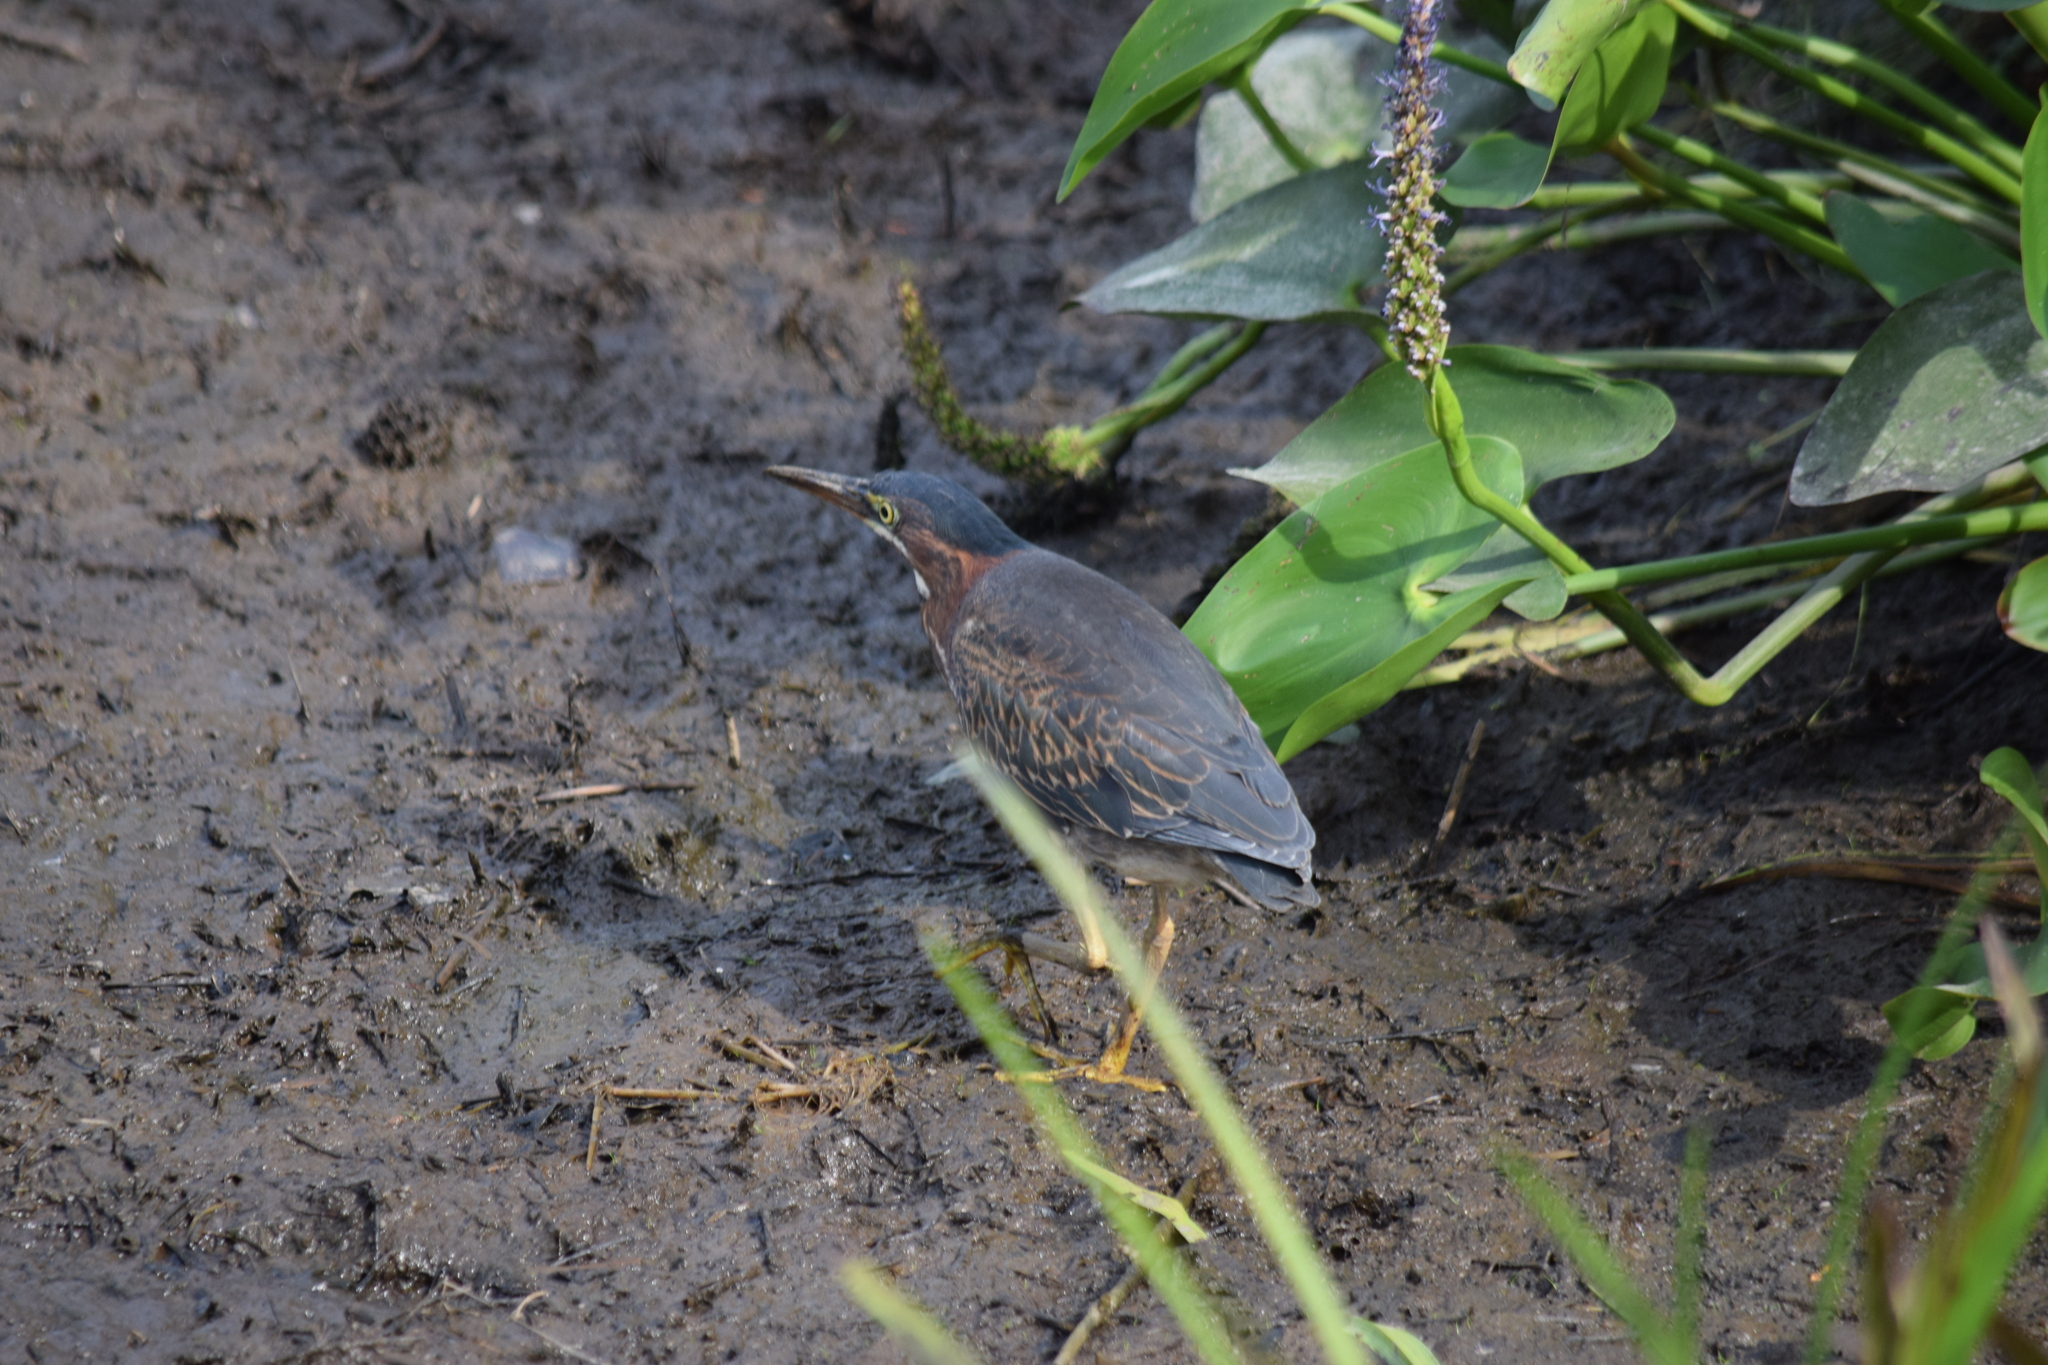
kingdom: Animalia
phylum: Chordata
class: Aves
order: Pelecaniformes
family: Ardeidae
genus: Butorides
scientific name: Butorides virescens
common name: Green heron
